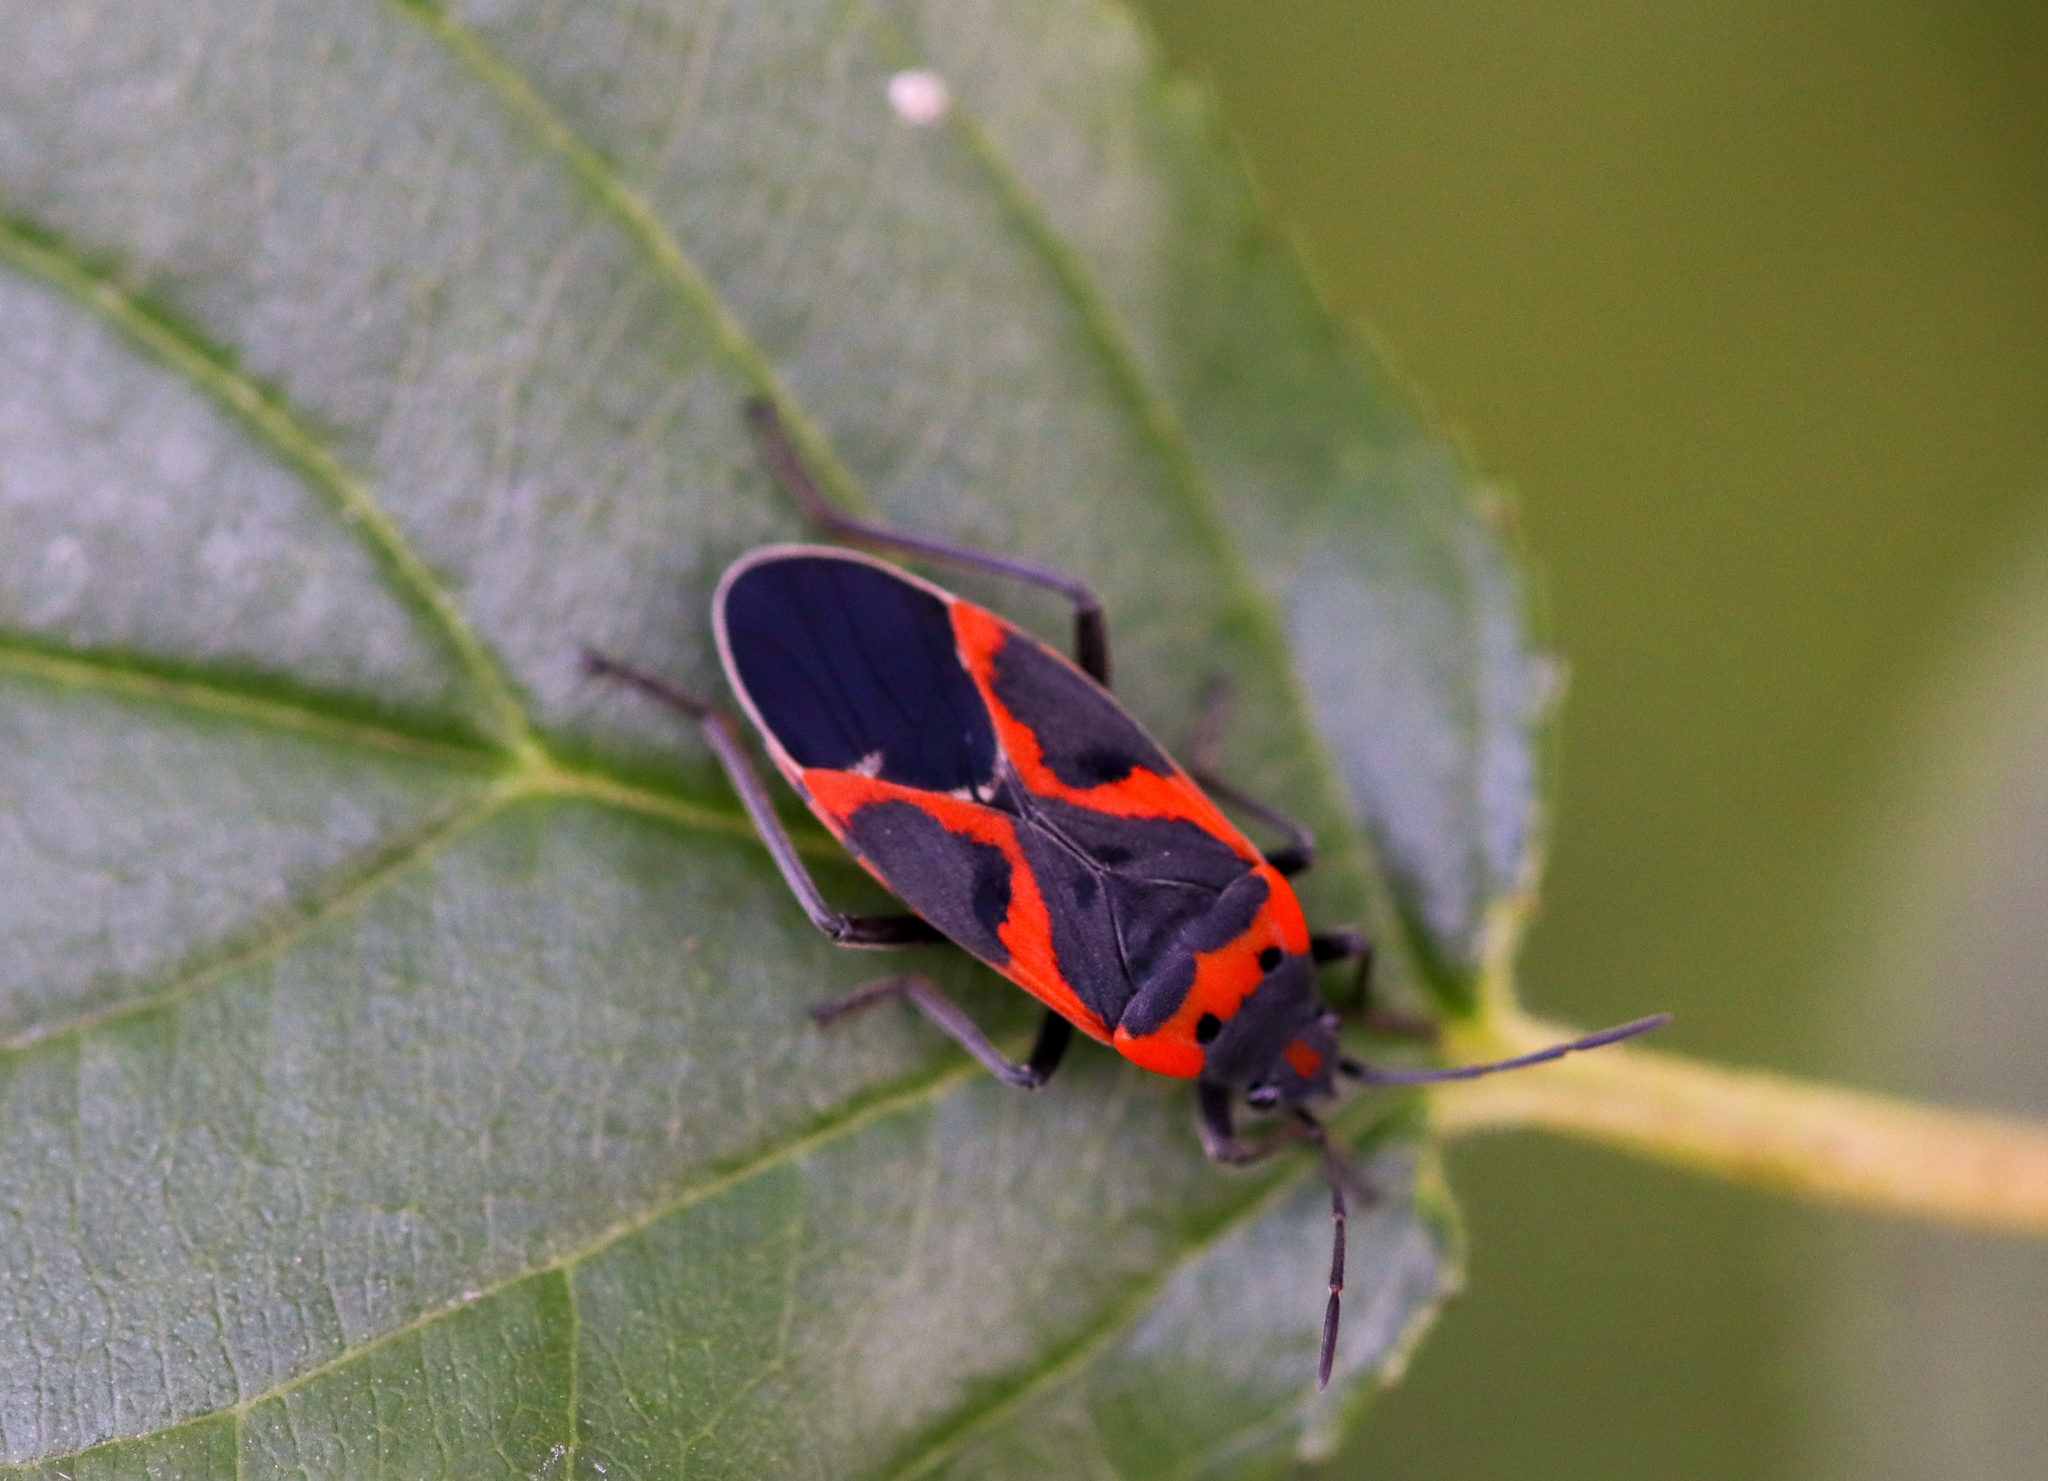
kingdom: Animalia
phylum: Arthropoda
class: Insecta
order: Hemiptera
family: Lygaeidae
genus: Lygaeus
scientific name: Lygaeus kalmii
